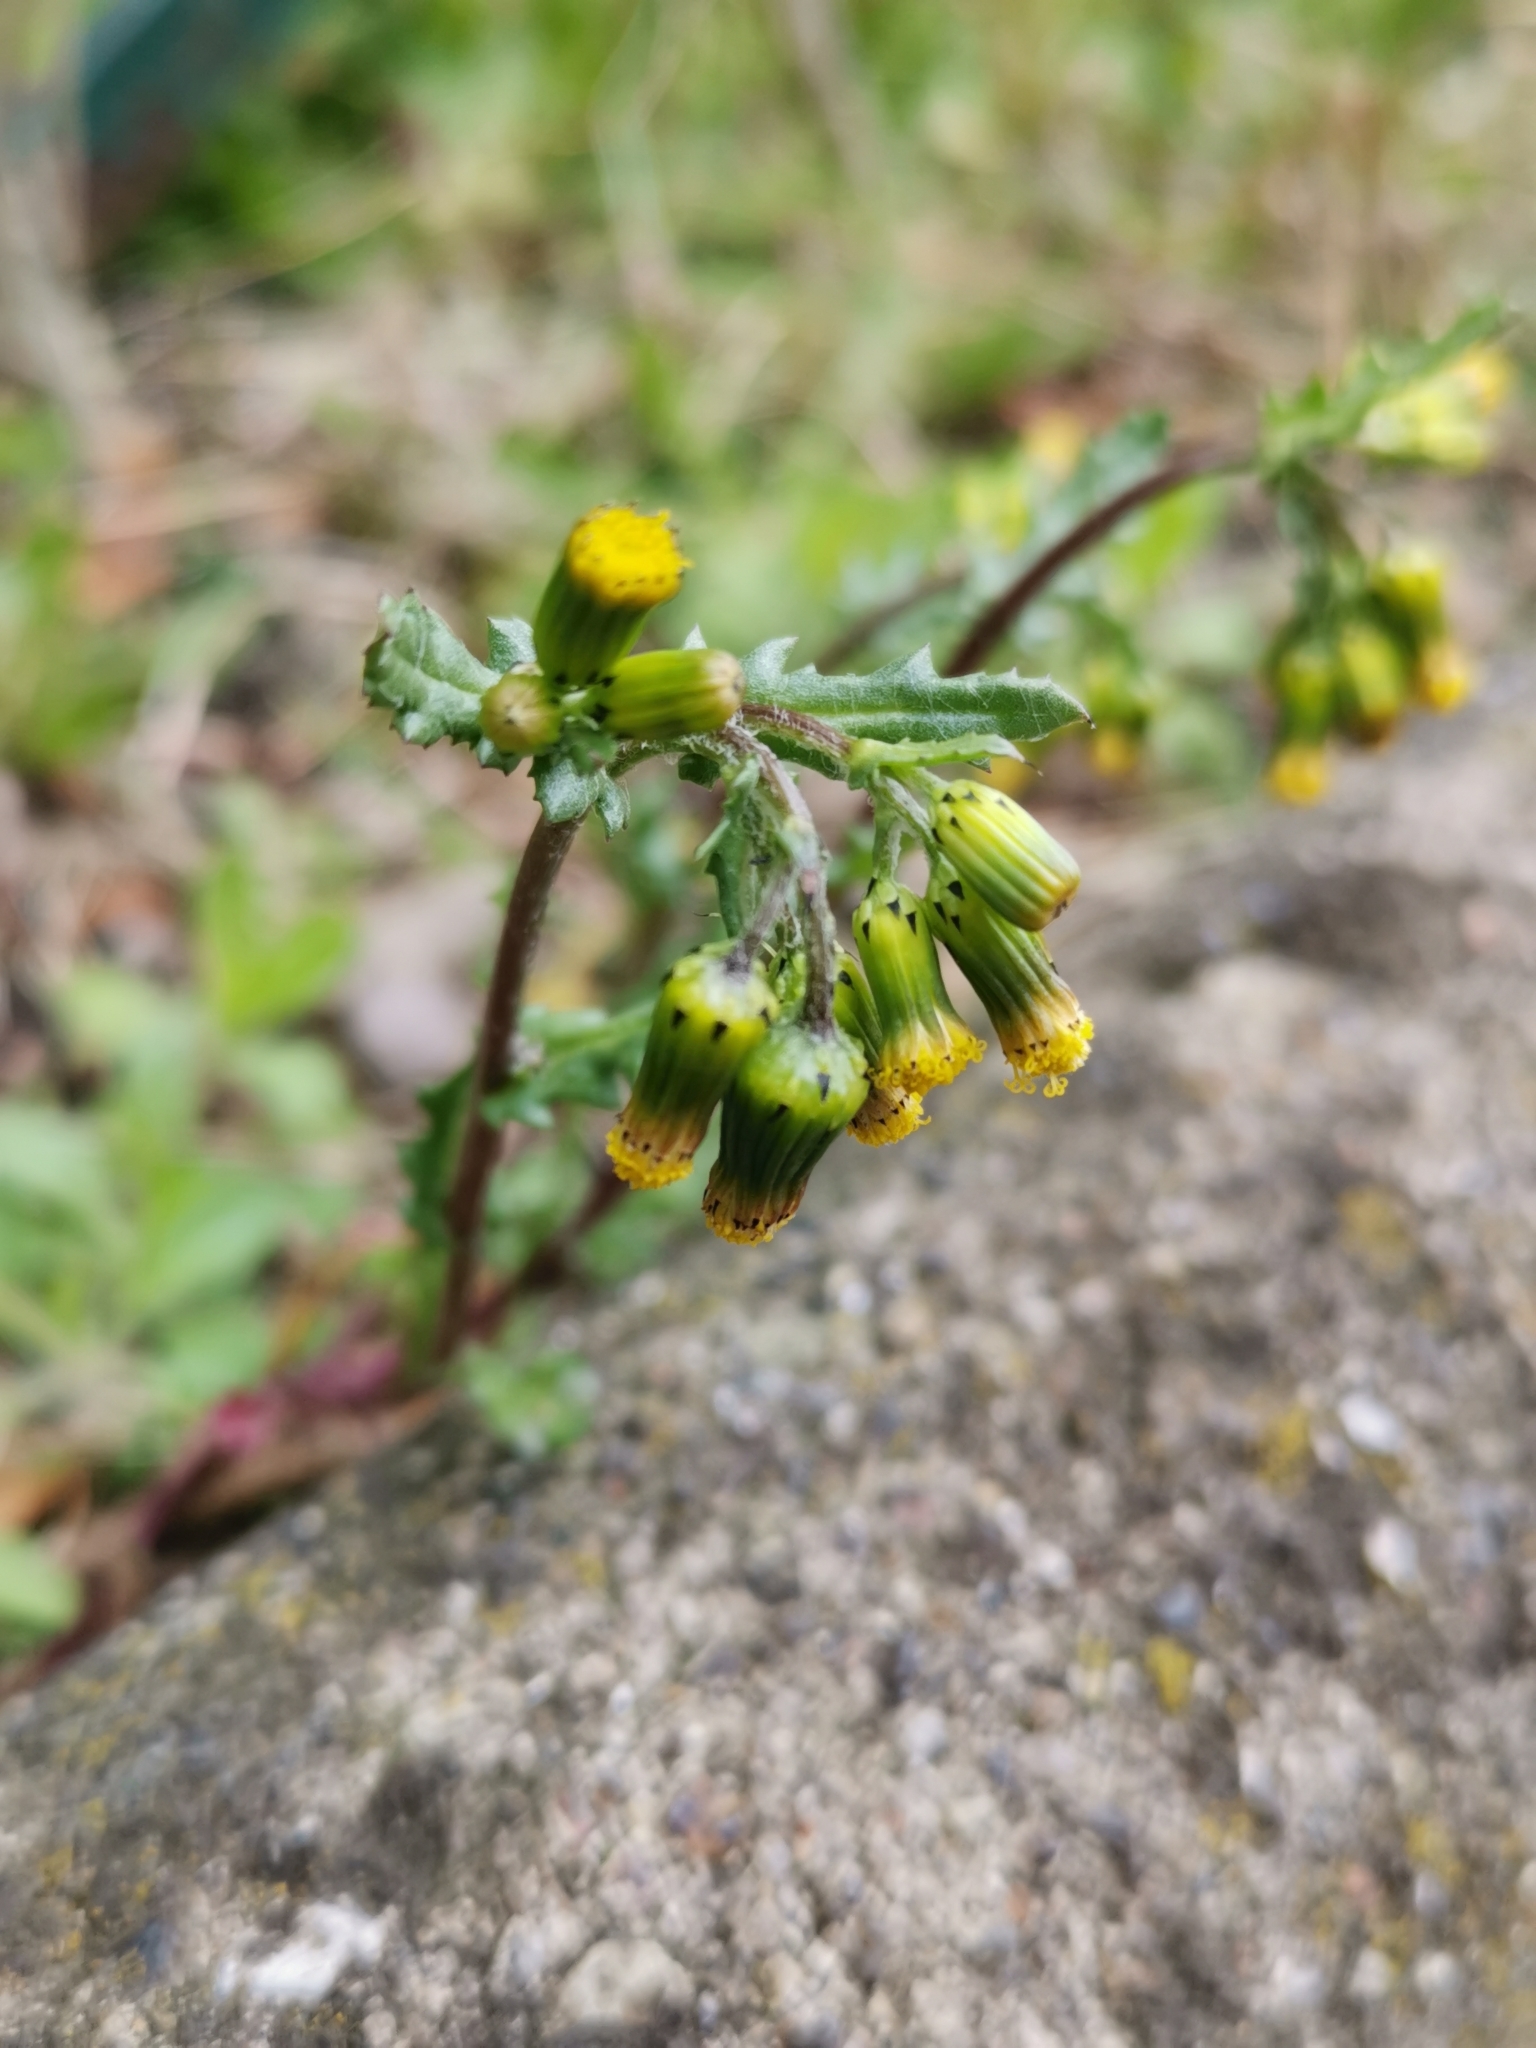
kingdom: Plantae
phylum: Tracheophyta
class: Magnoliopsida
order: Asterales
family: Asteraceae
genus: Senecio
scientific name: Senecio vulgaris
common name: Old-man-in-the-spring
